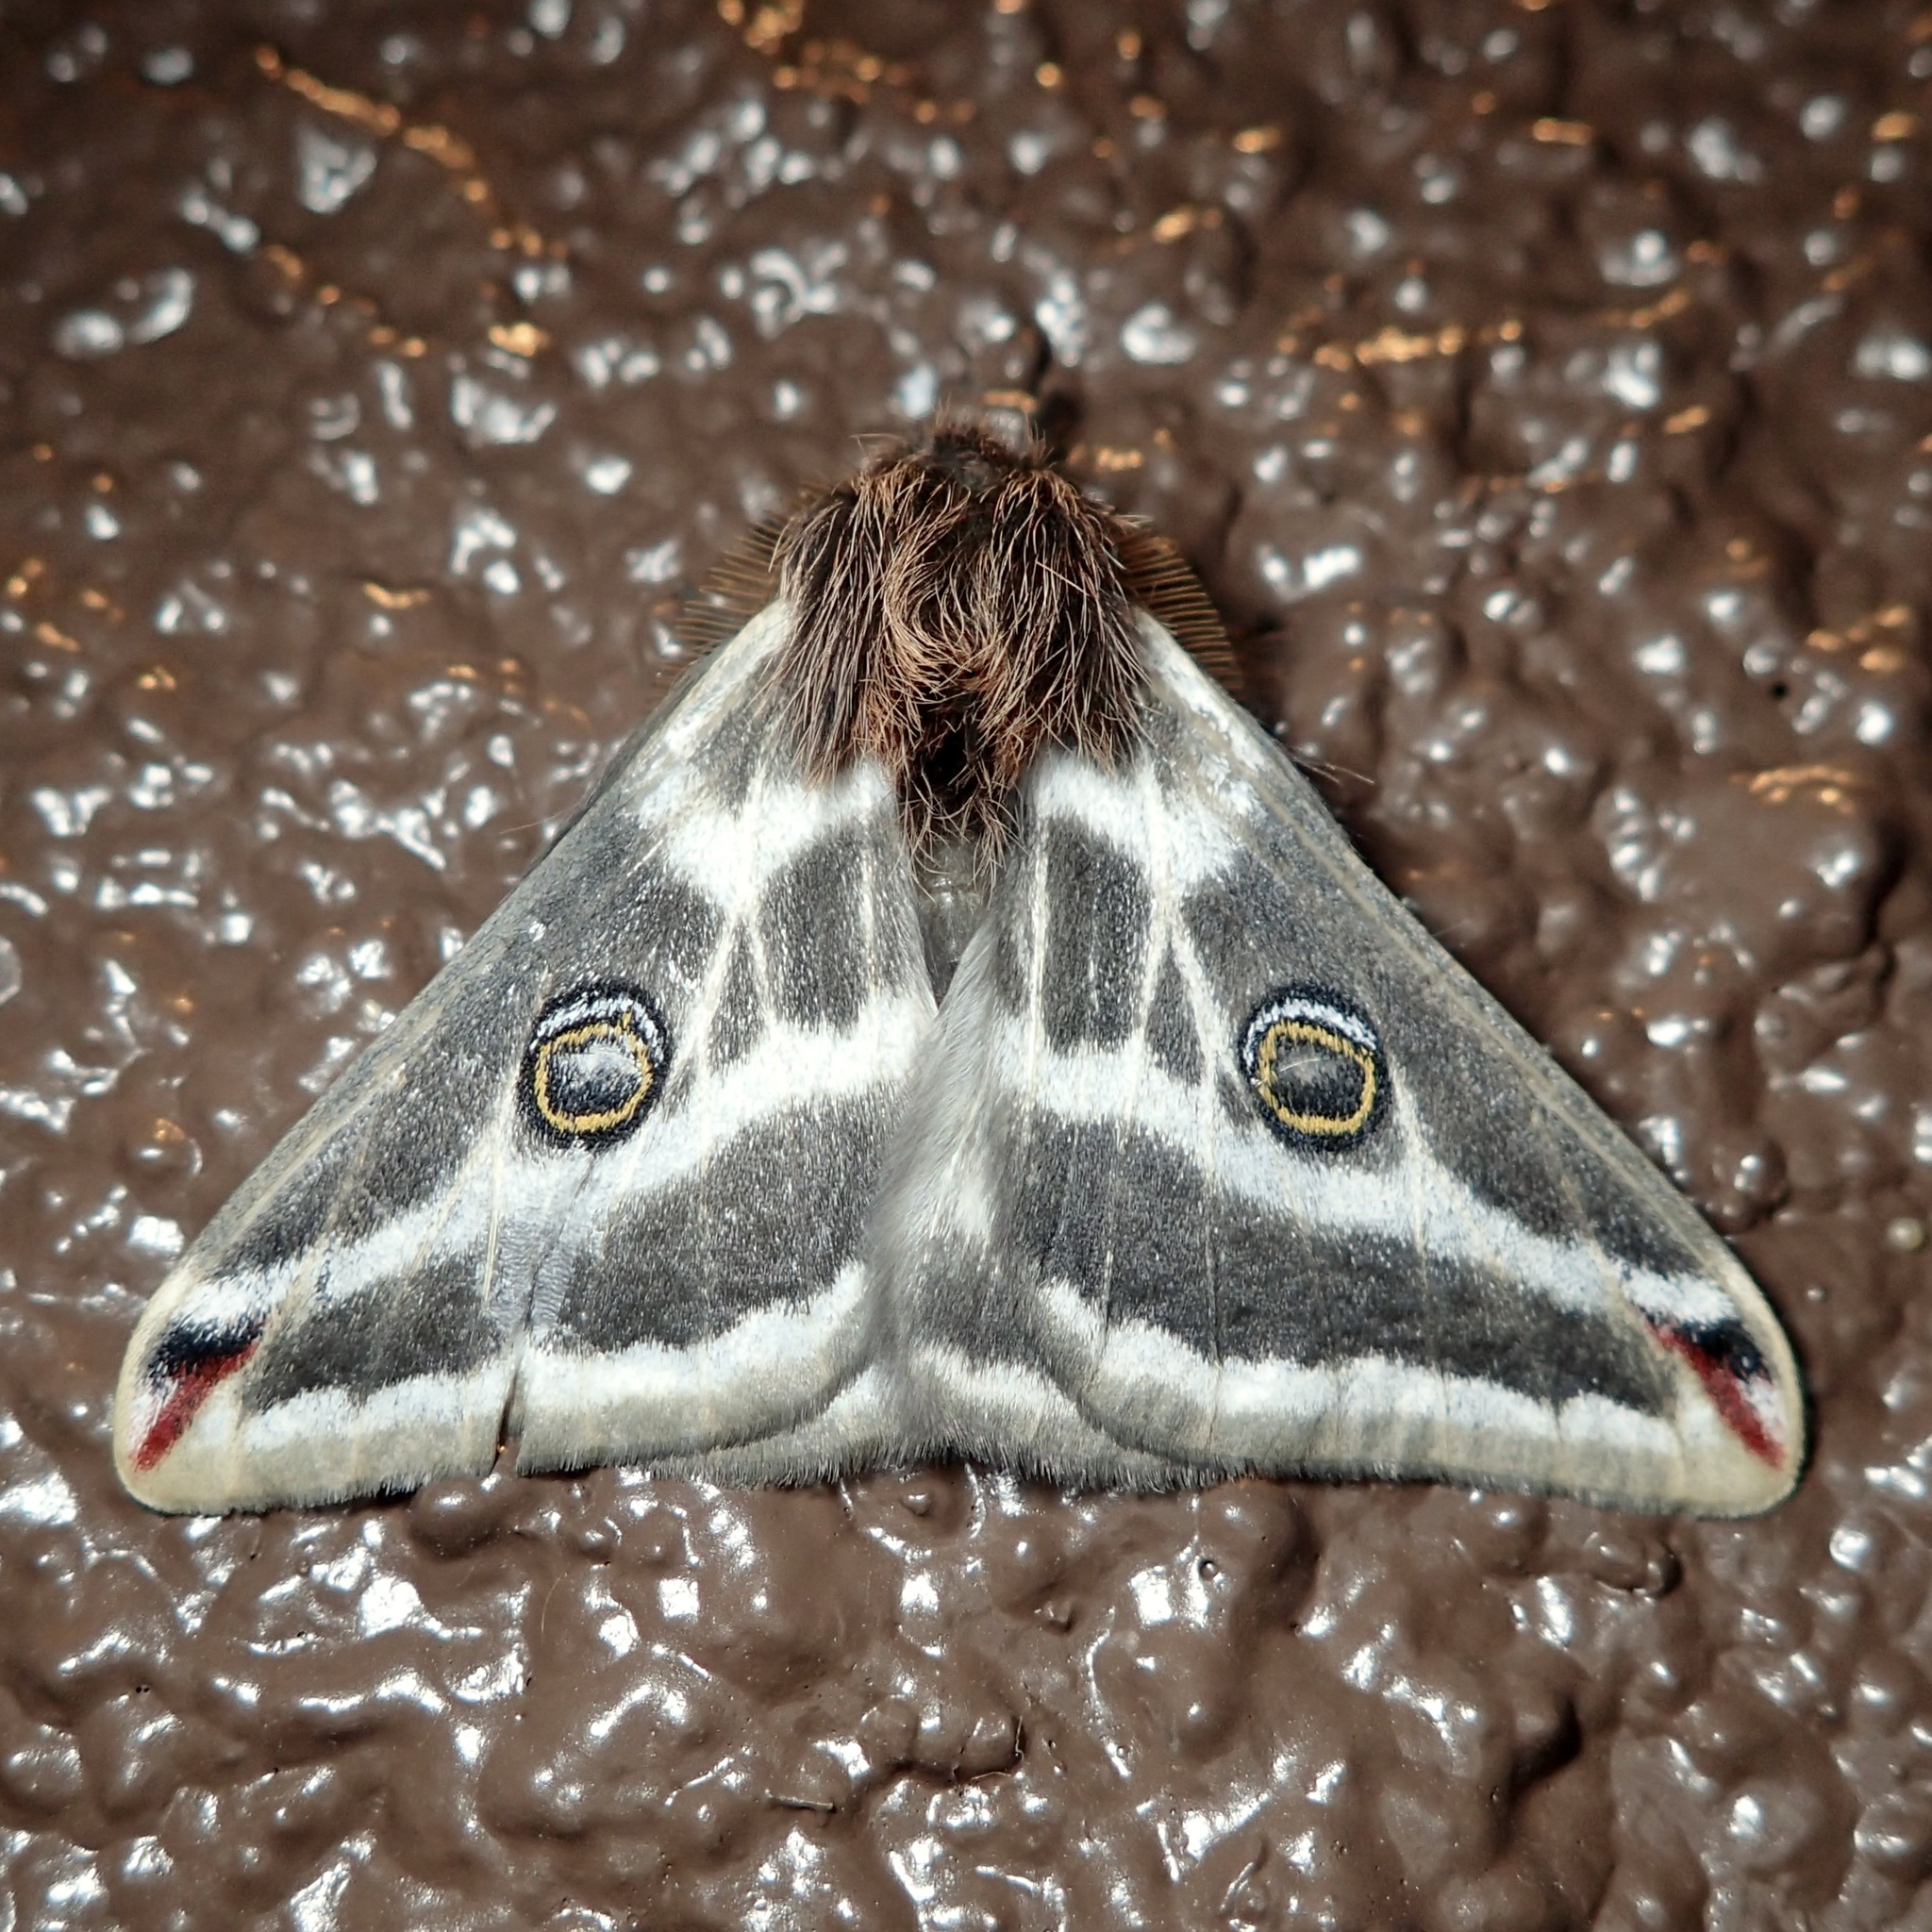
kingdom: Animalia
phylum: Arthropoda
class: Insecta
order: Lepidoptera
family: Saturniidae
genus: Saturnia
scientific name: Saturnia anona
